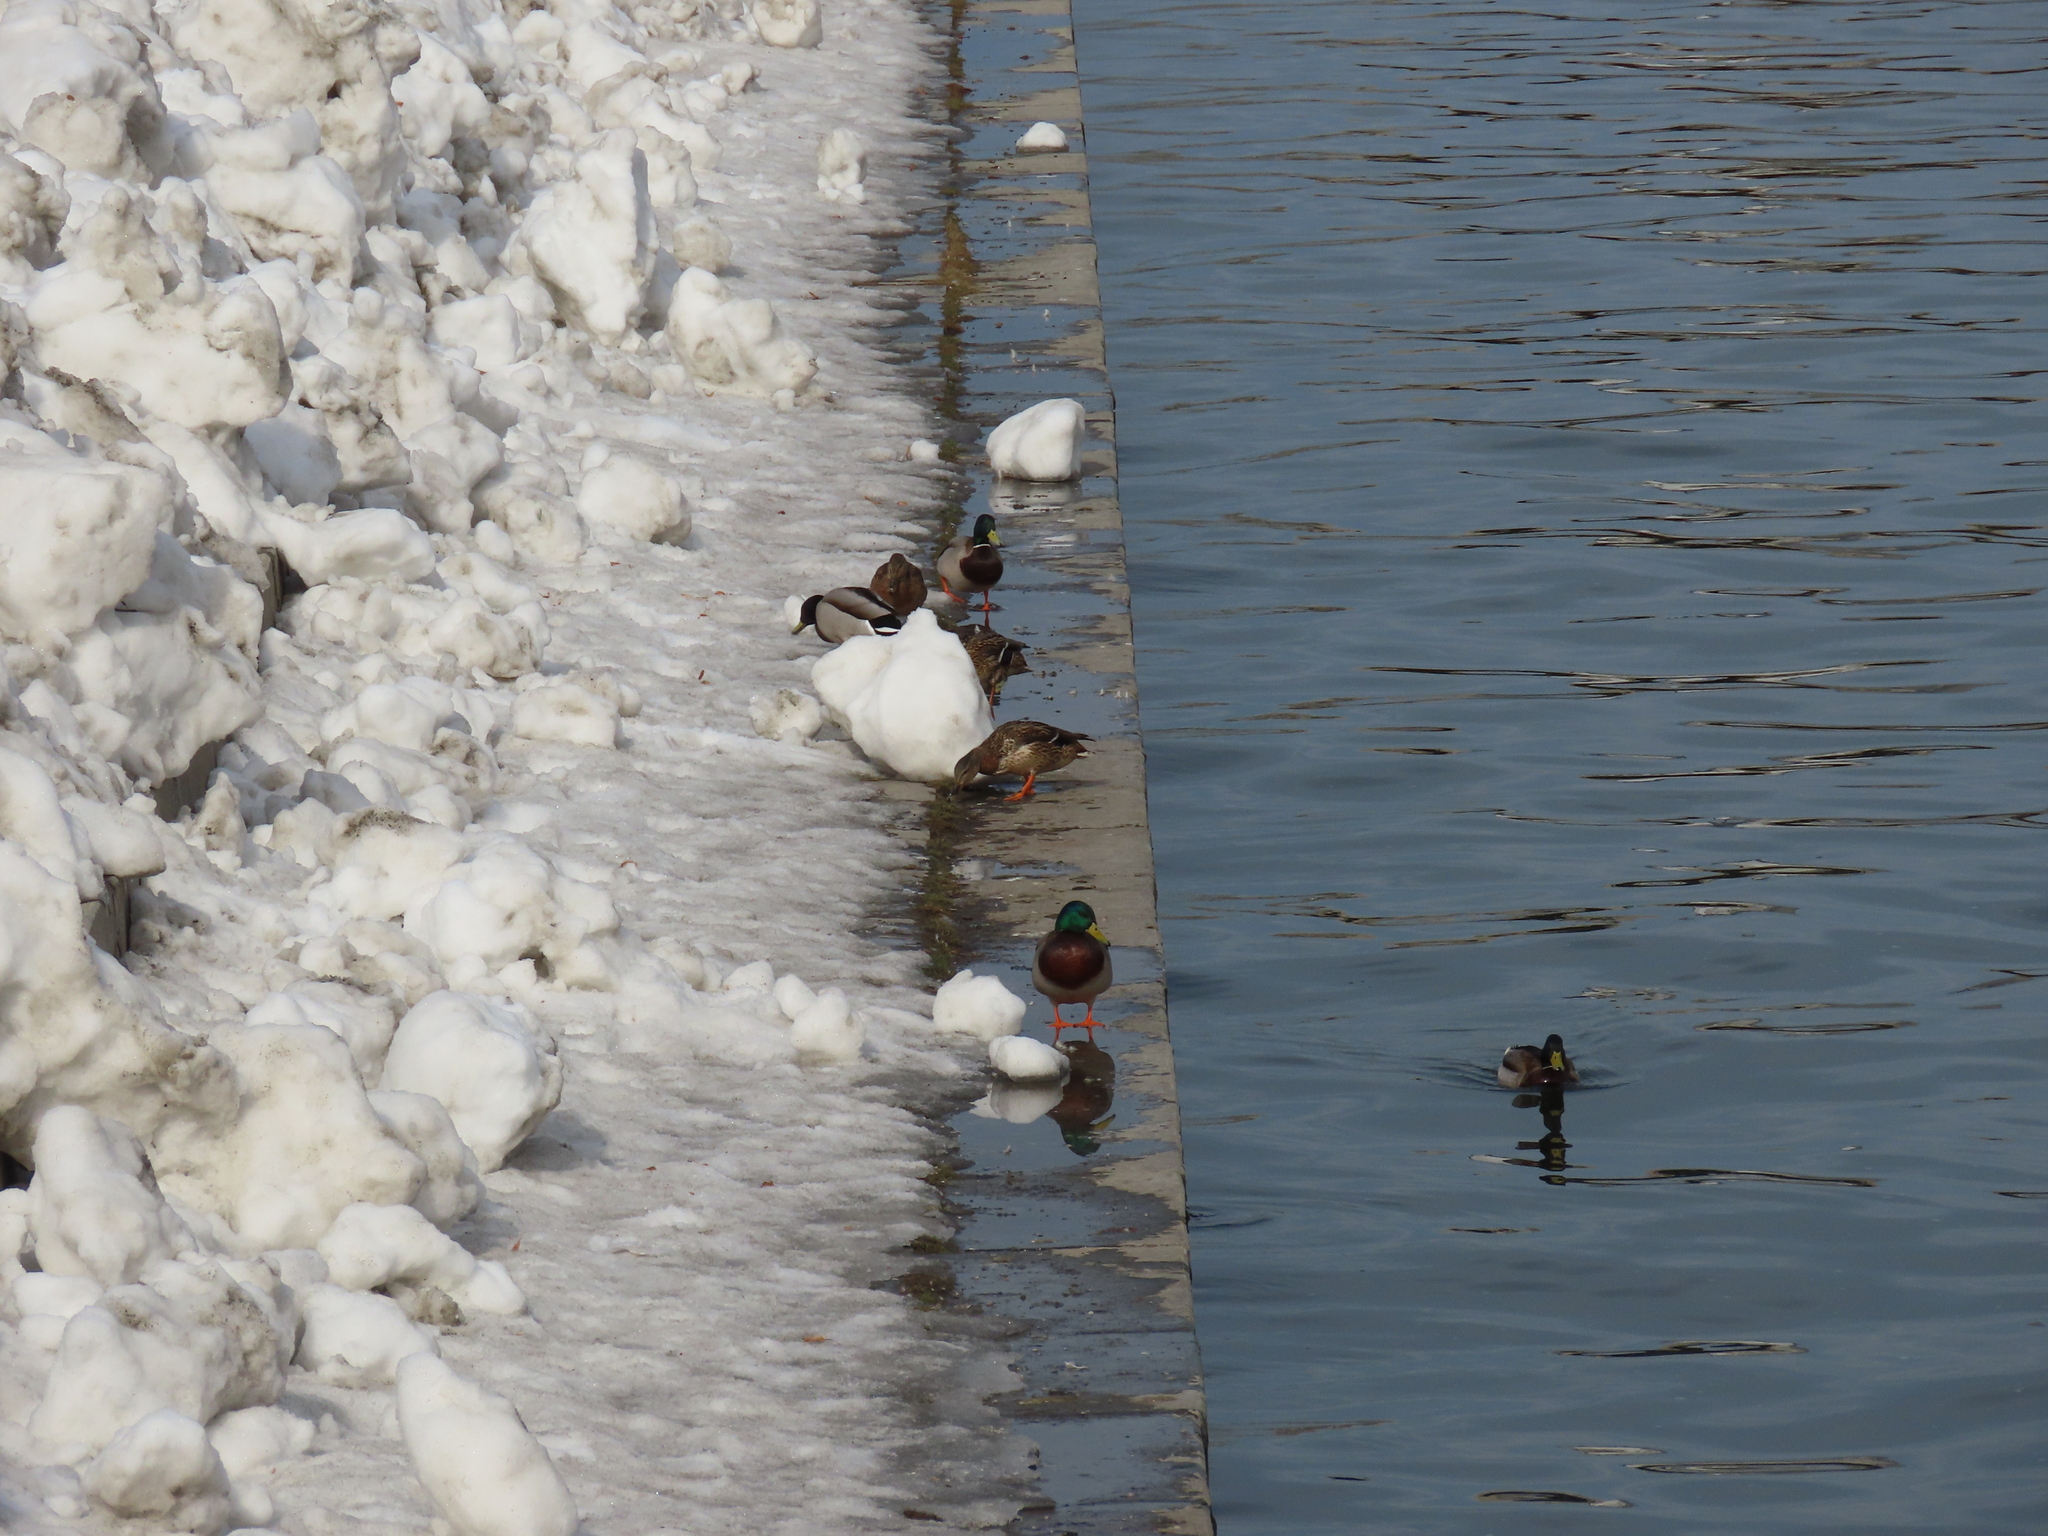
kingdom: Animalia
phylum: Chordata
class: Aves
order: Anseriformes
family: Anatidae
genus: Anas
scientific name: Anas platyrhynchos
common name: Mallard
